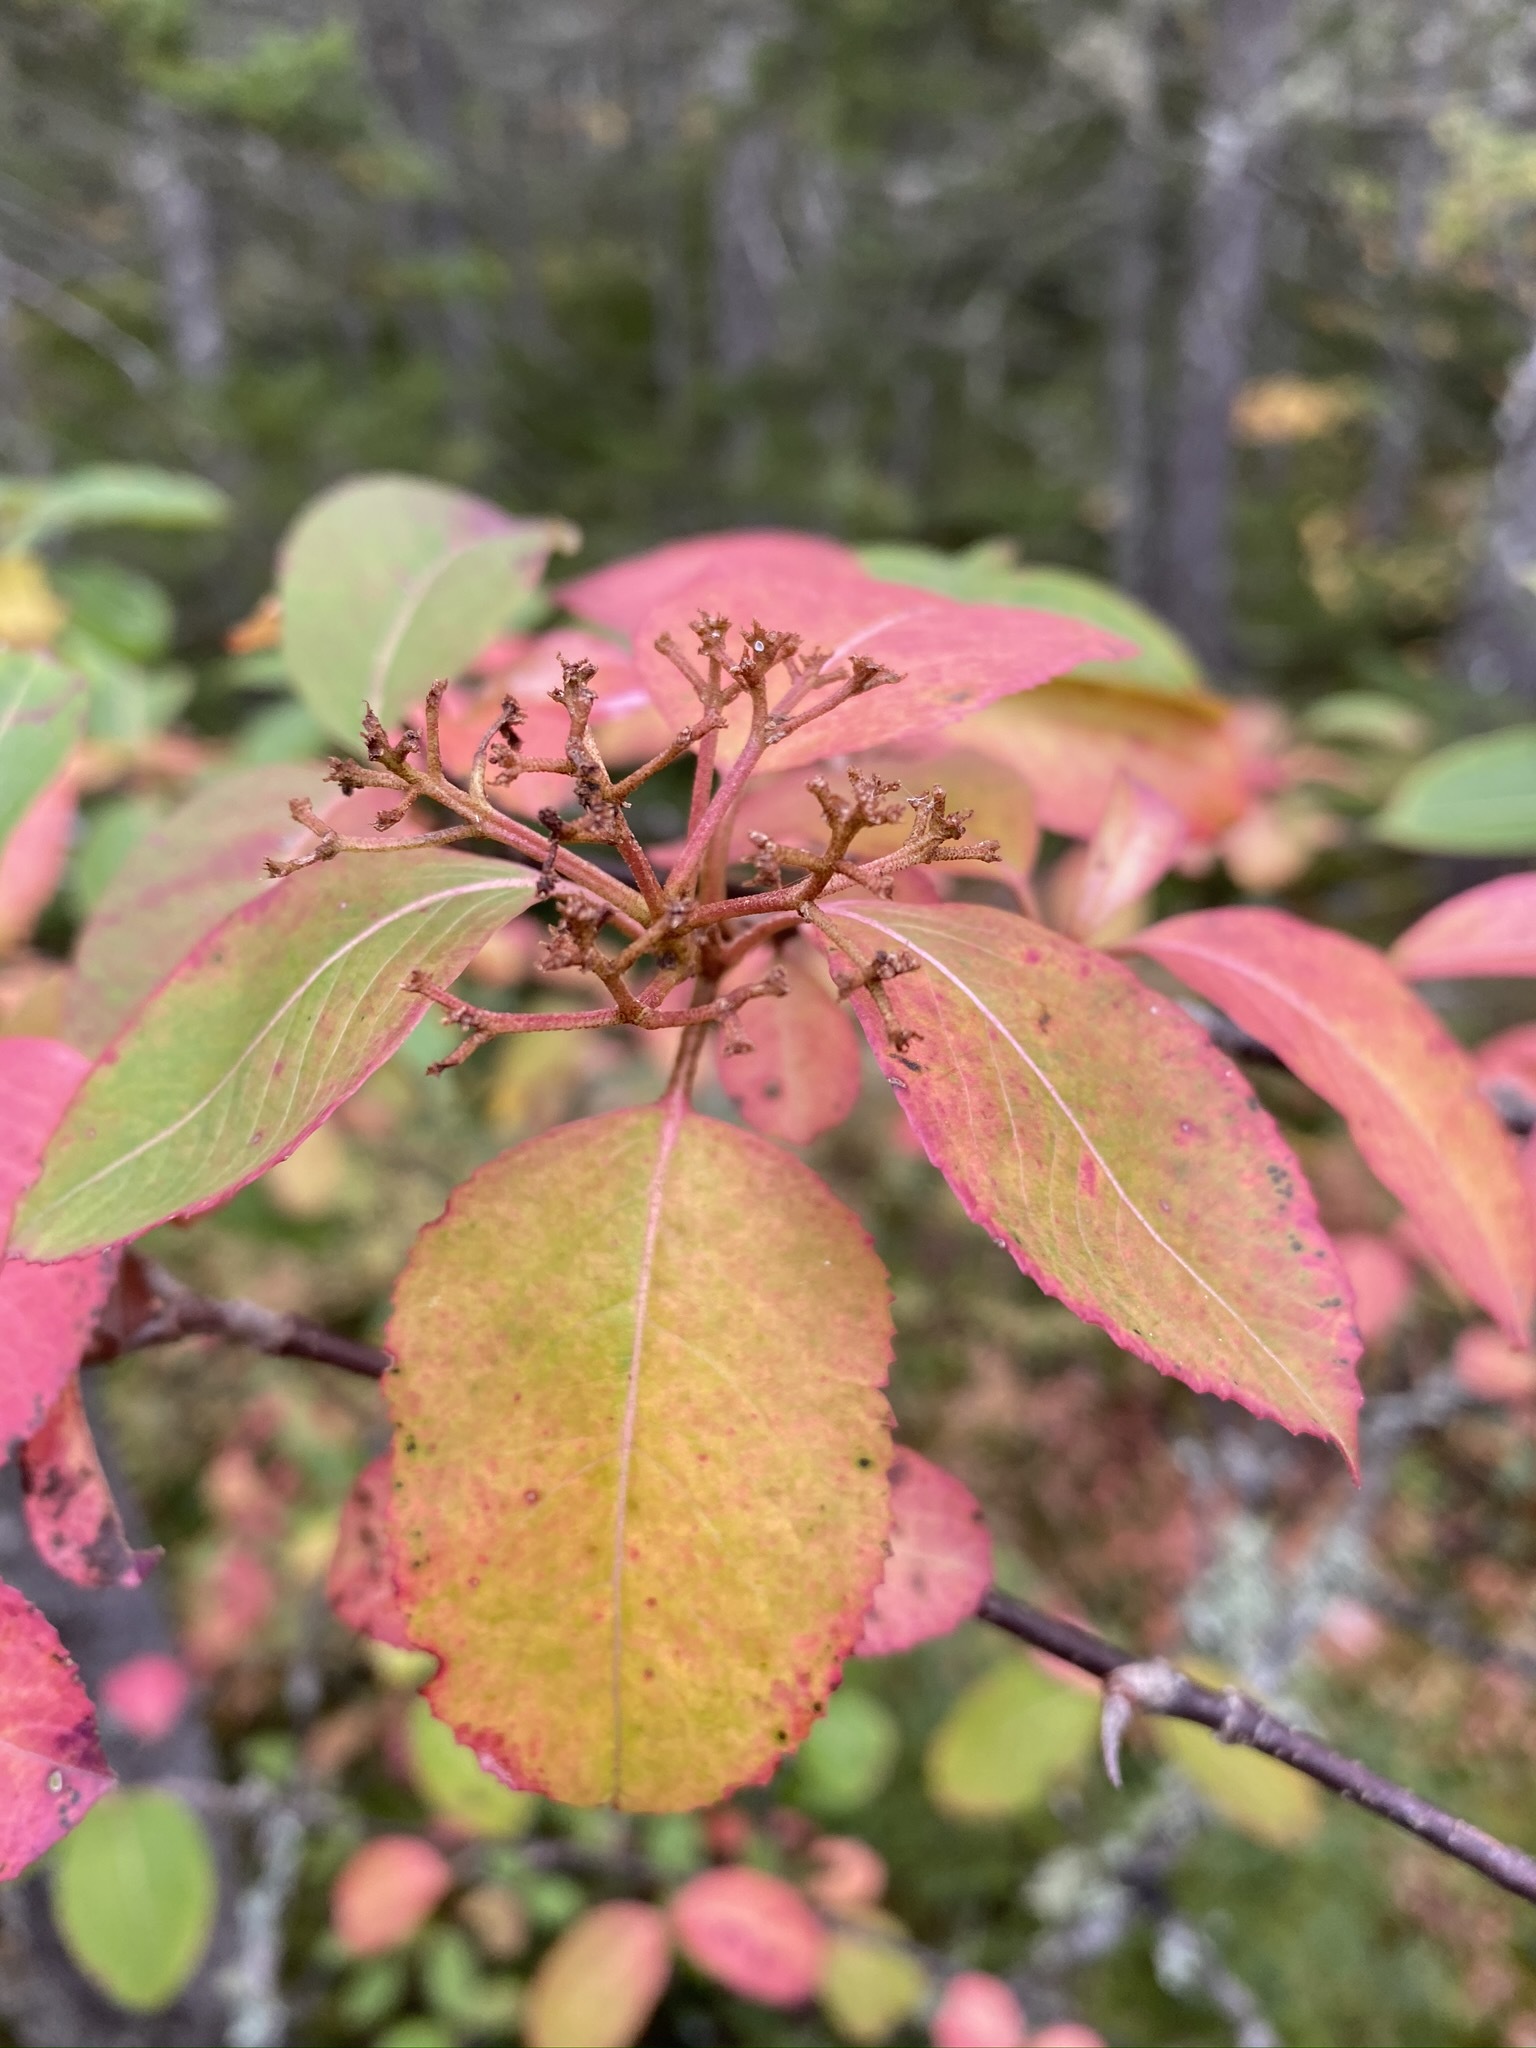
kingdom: Plantae
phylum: Tracheophyta
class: Magnoliopsida
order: Dipsacales
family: Viburnaceae
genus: Viburnum
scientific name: Viburnum cassinoides
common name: Swamp haw
